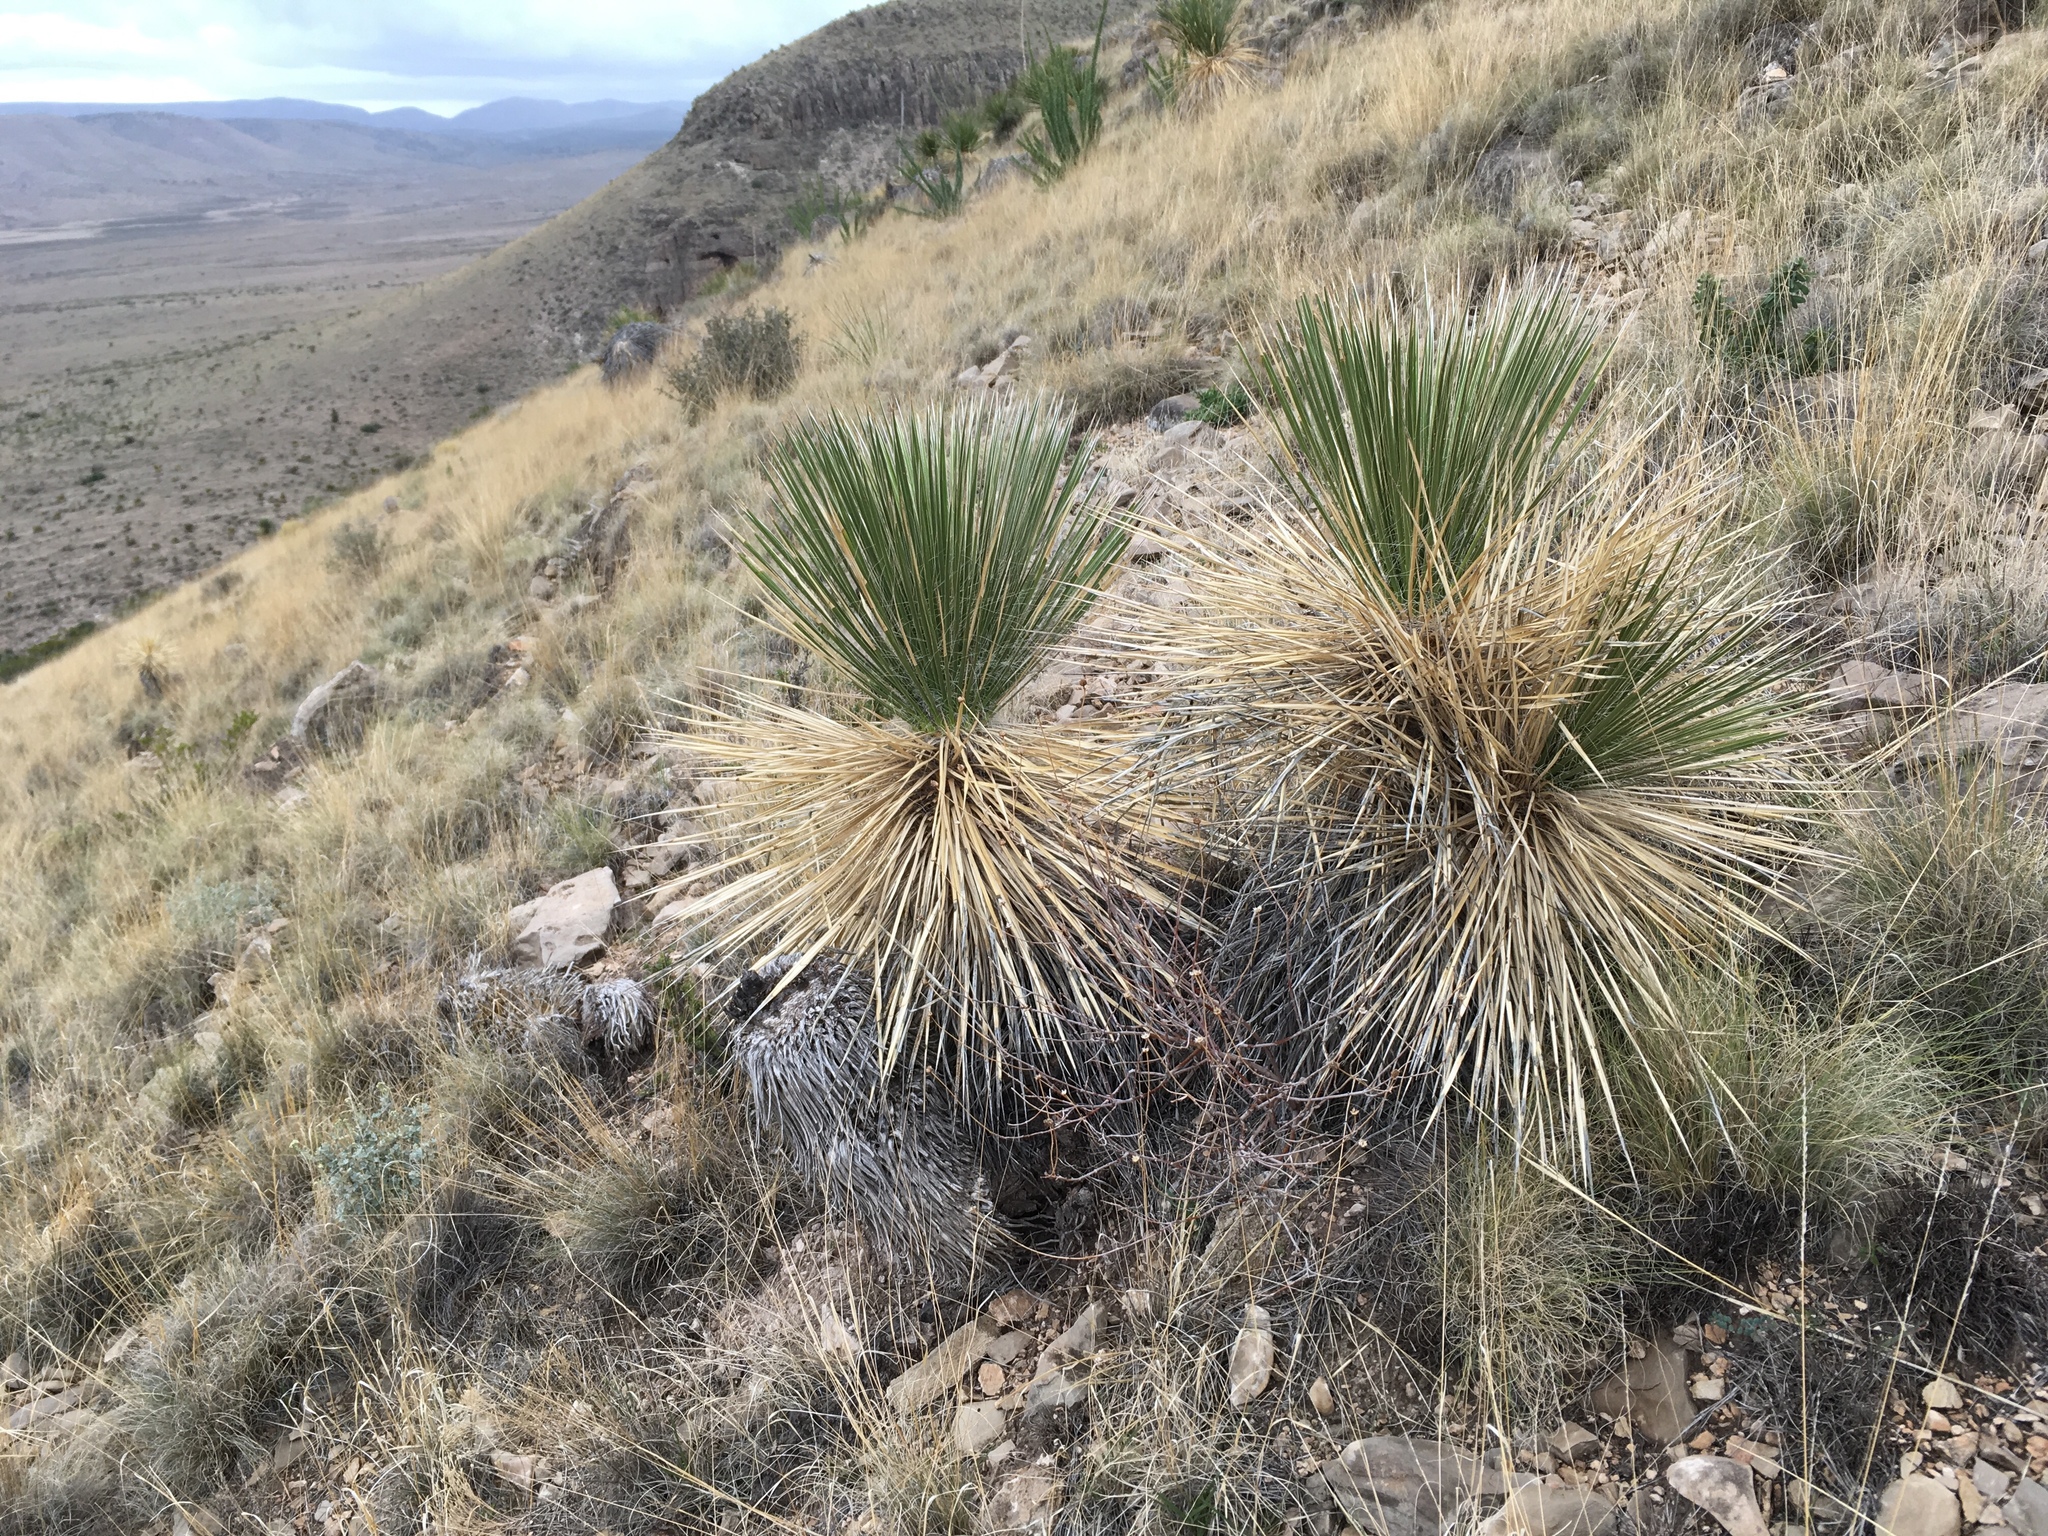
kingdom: Plantae
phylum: Tracheophyta
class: Liliopsida
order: Asparagales
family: Asparagaceae
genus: Yucca
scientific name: Yucca elata
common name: Palmella
